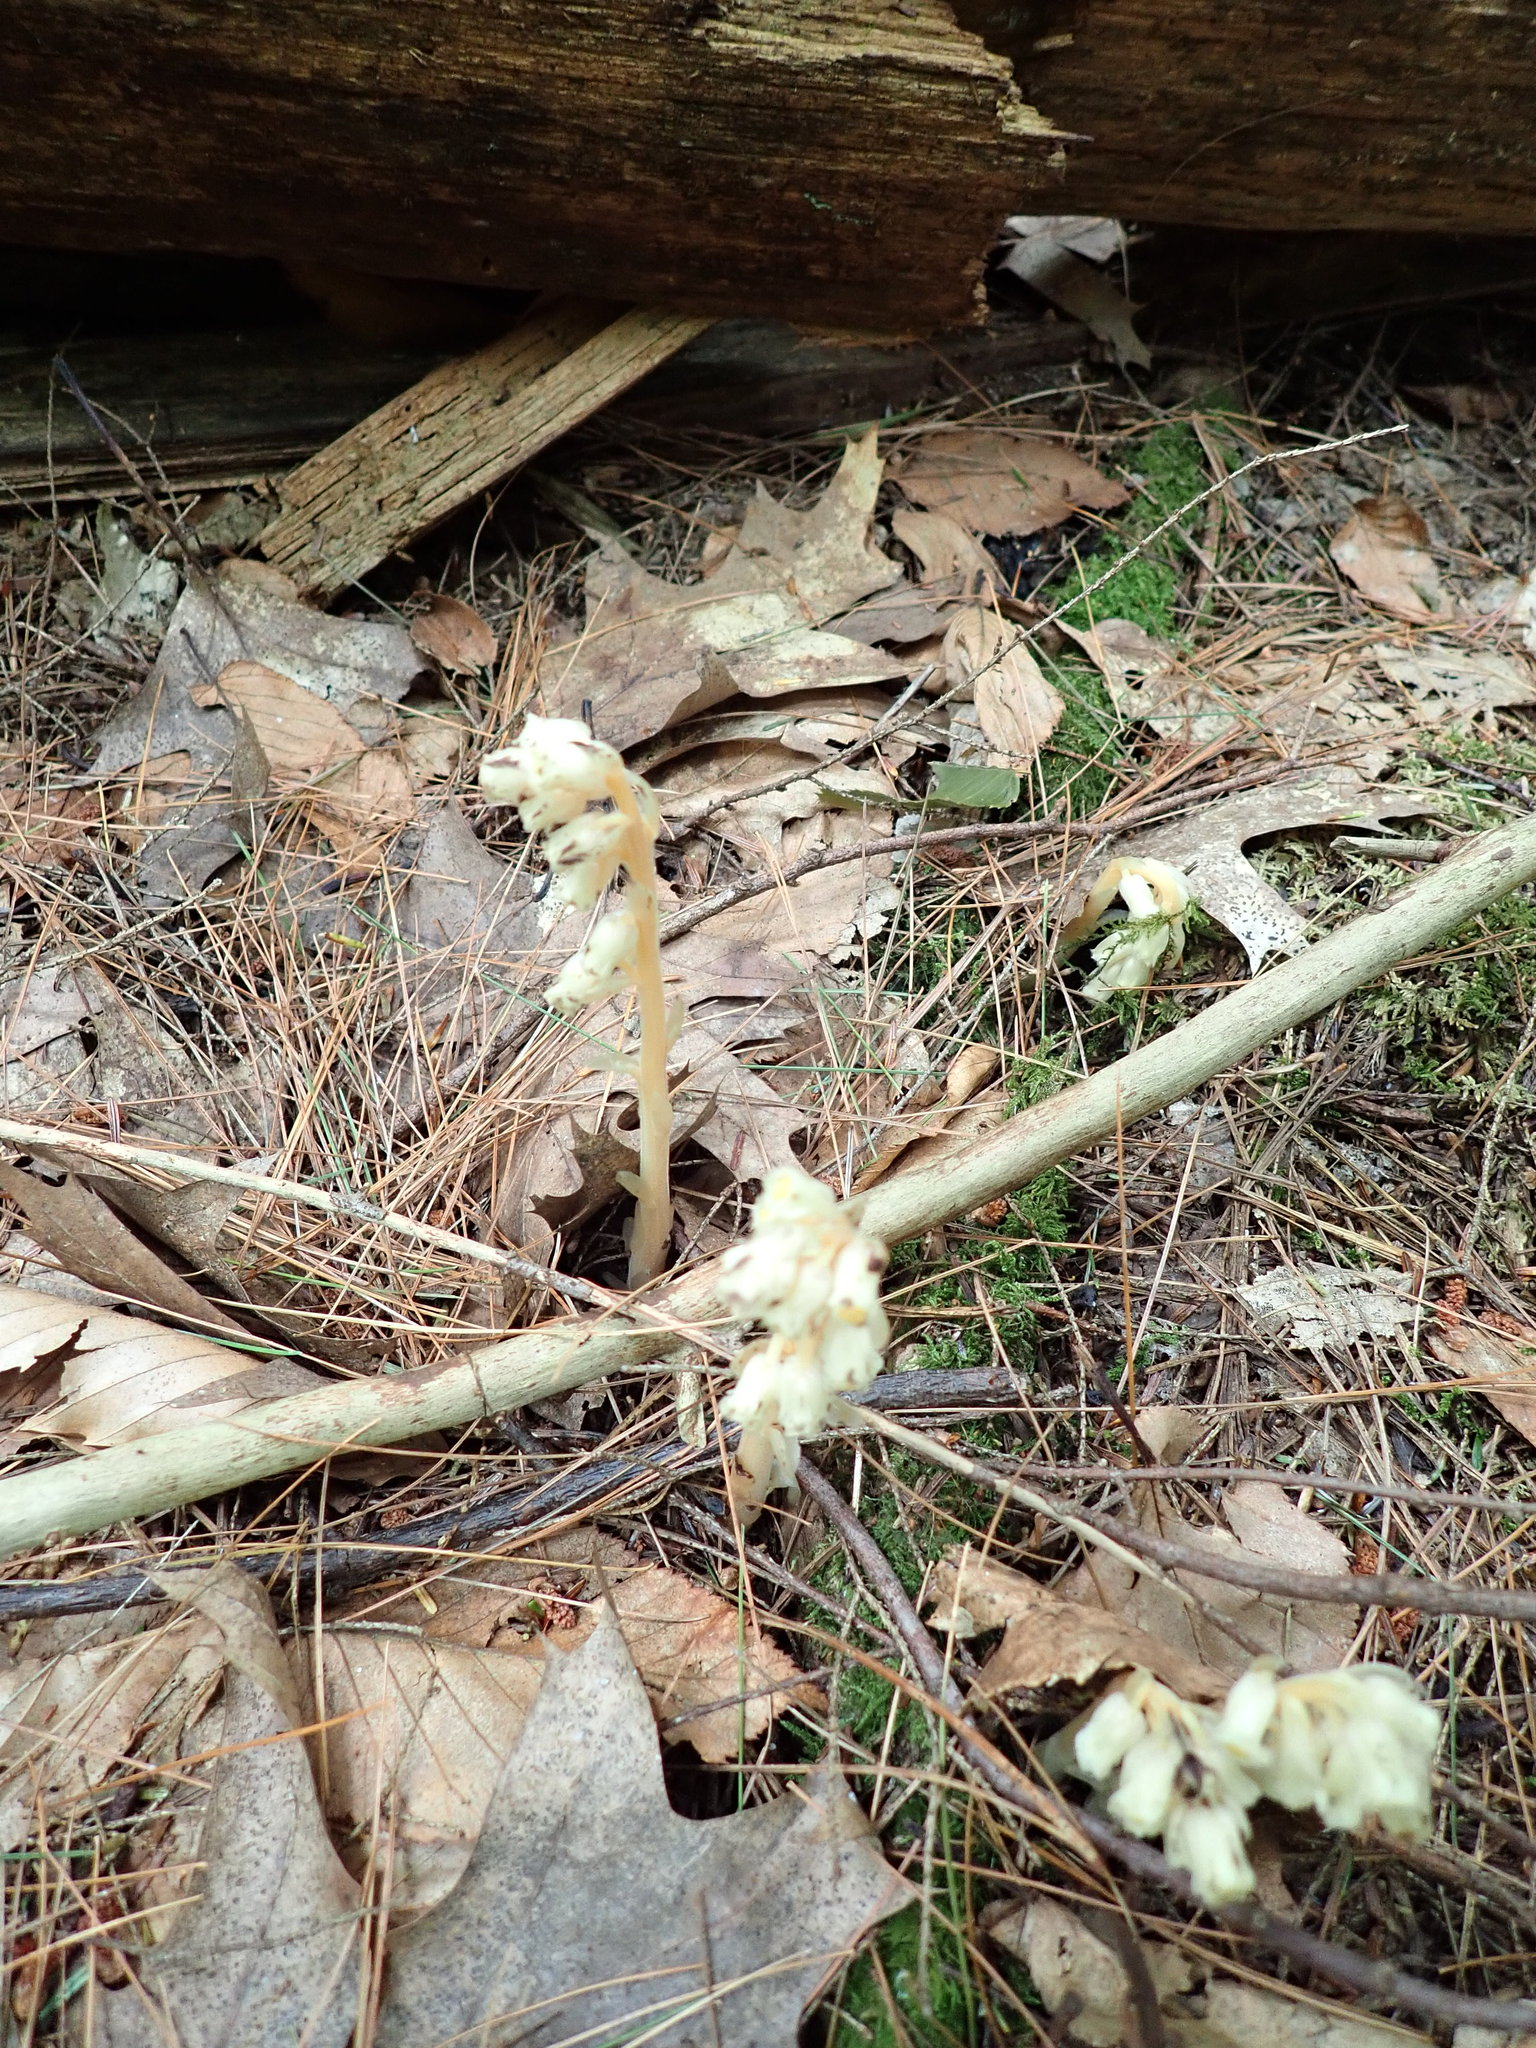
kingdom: Plantae
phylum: Tracheophyta
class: Magnoliopsida
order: Ericales
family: Ericaceae
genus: Hypopitys
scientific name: Hypopitys monotropa
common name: Yellow bird's-nest
